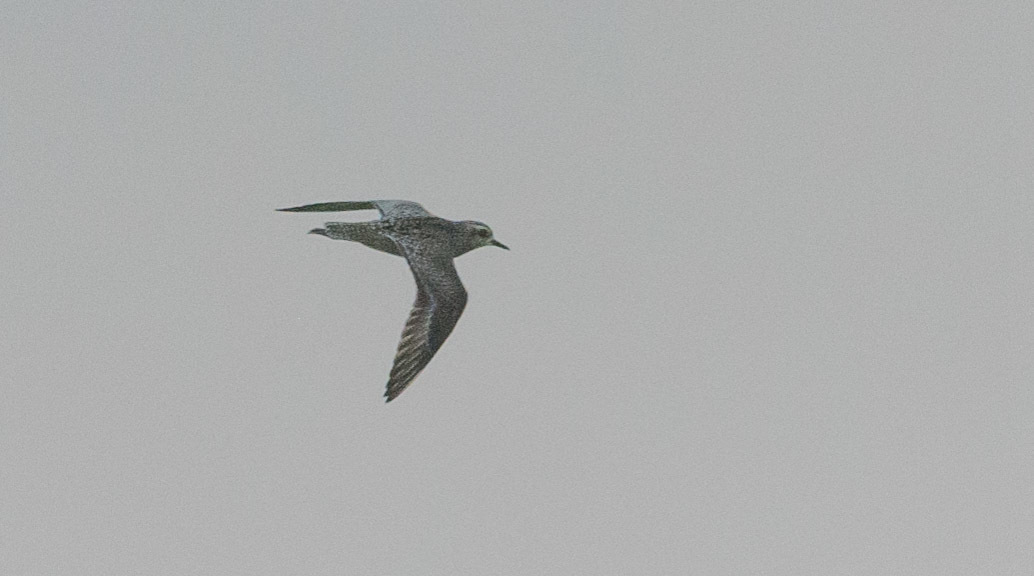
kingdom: Animalia
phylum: Chordata
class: Aves
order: Charadriiformes
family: Charadriidae
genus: Pluvialis
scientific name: Pluvialis fulva
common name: Pacific golden plover
